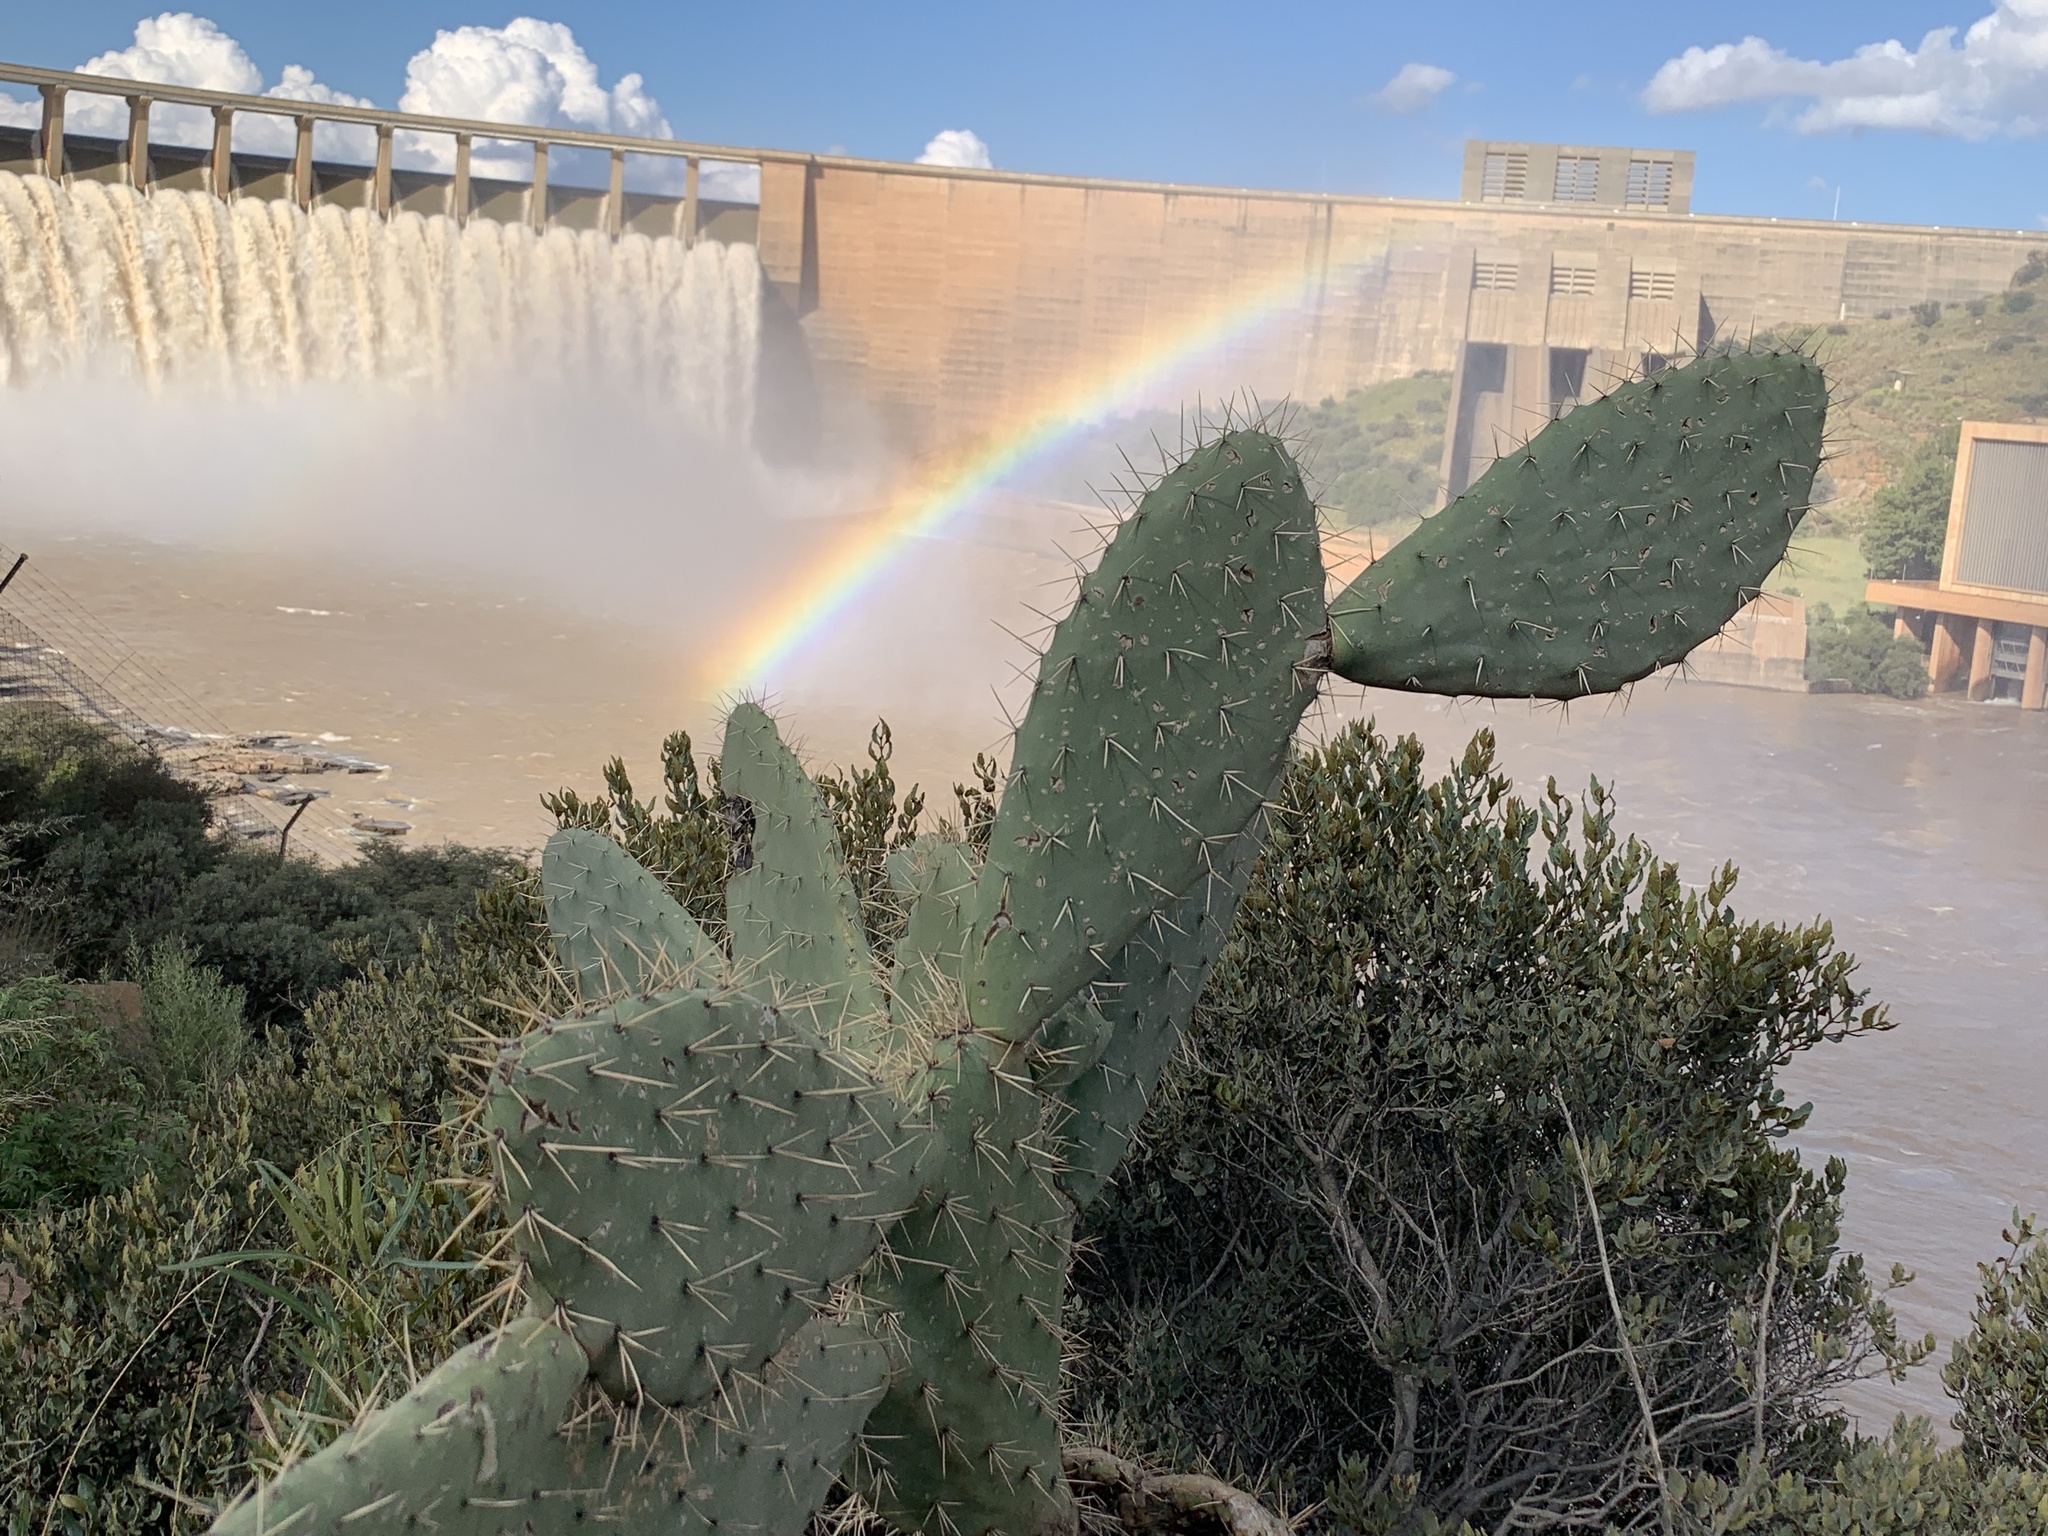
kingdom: Plantae
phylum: Tracheophyta
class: Magnoliopsida
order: Caryophyllales
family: Cactaceae
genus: Opuntia
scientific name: Opuntia ficus-indica
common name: Barbary fig
